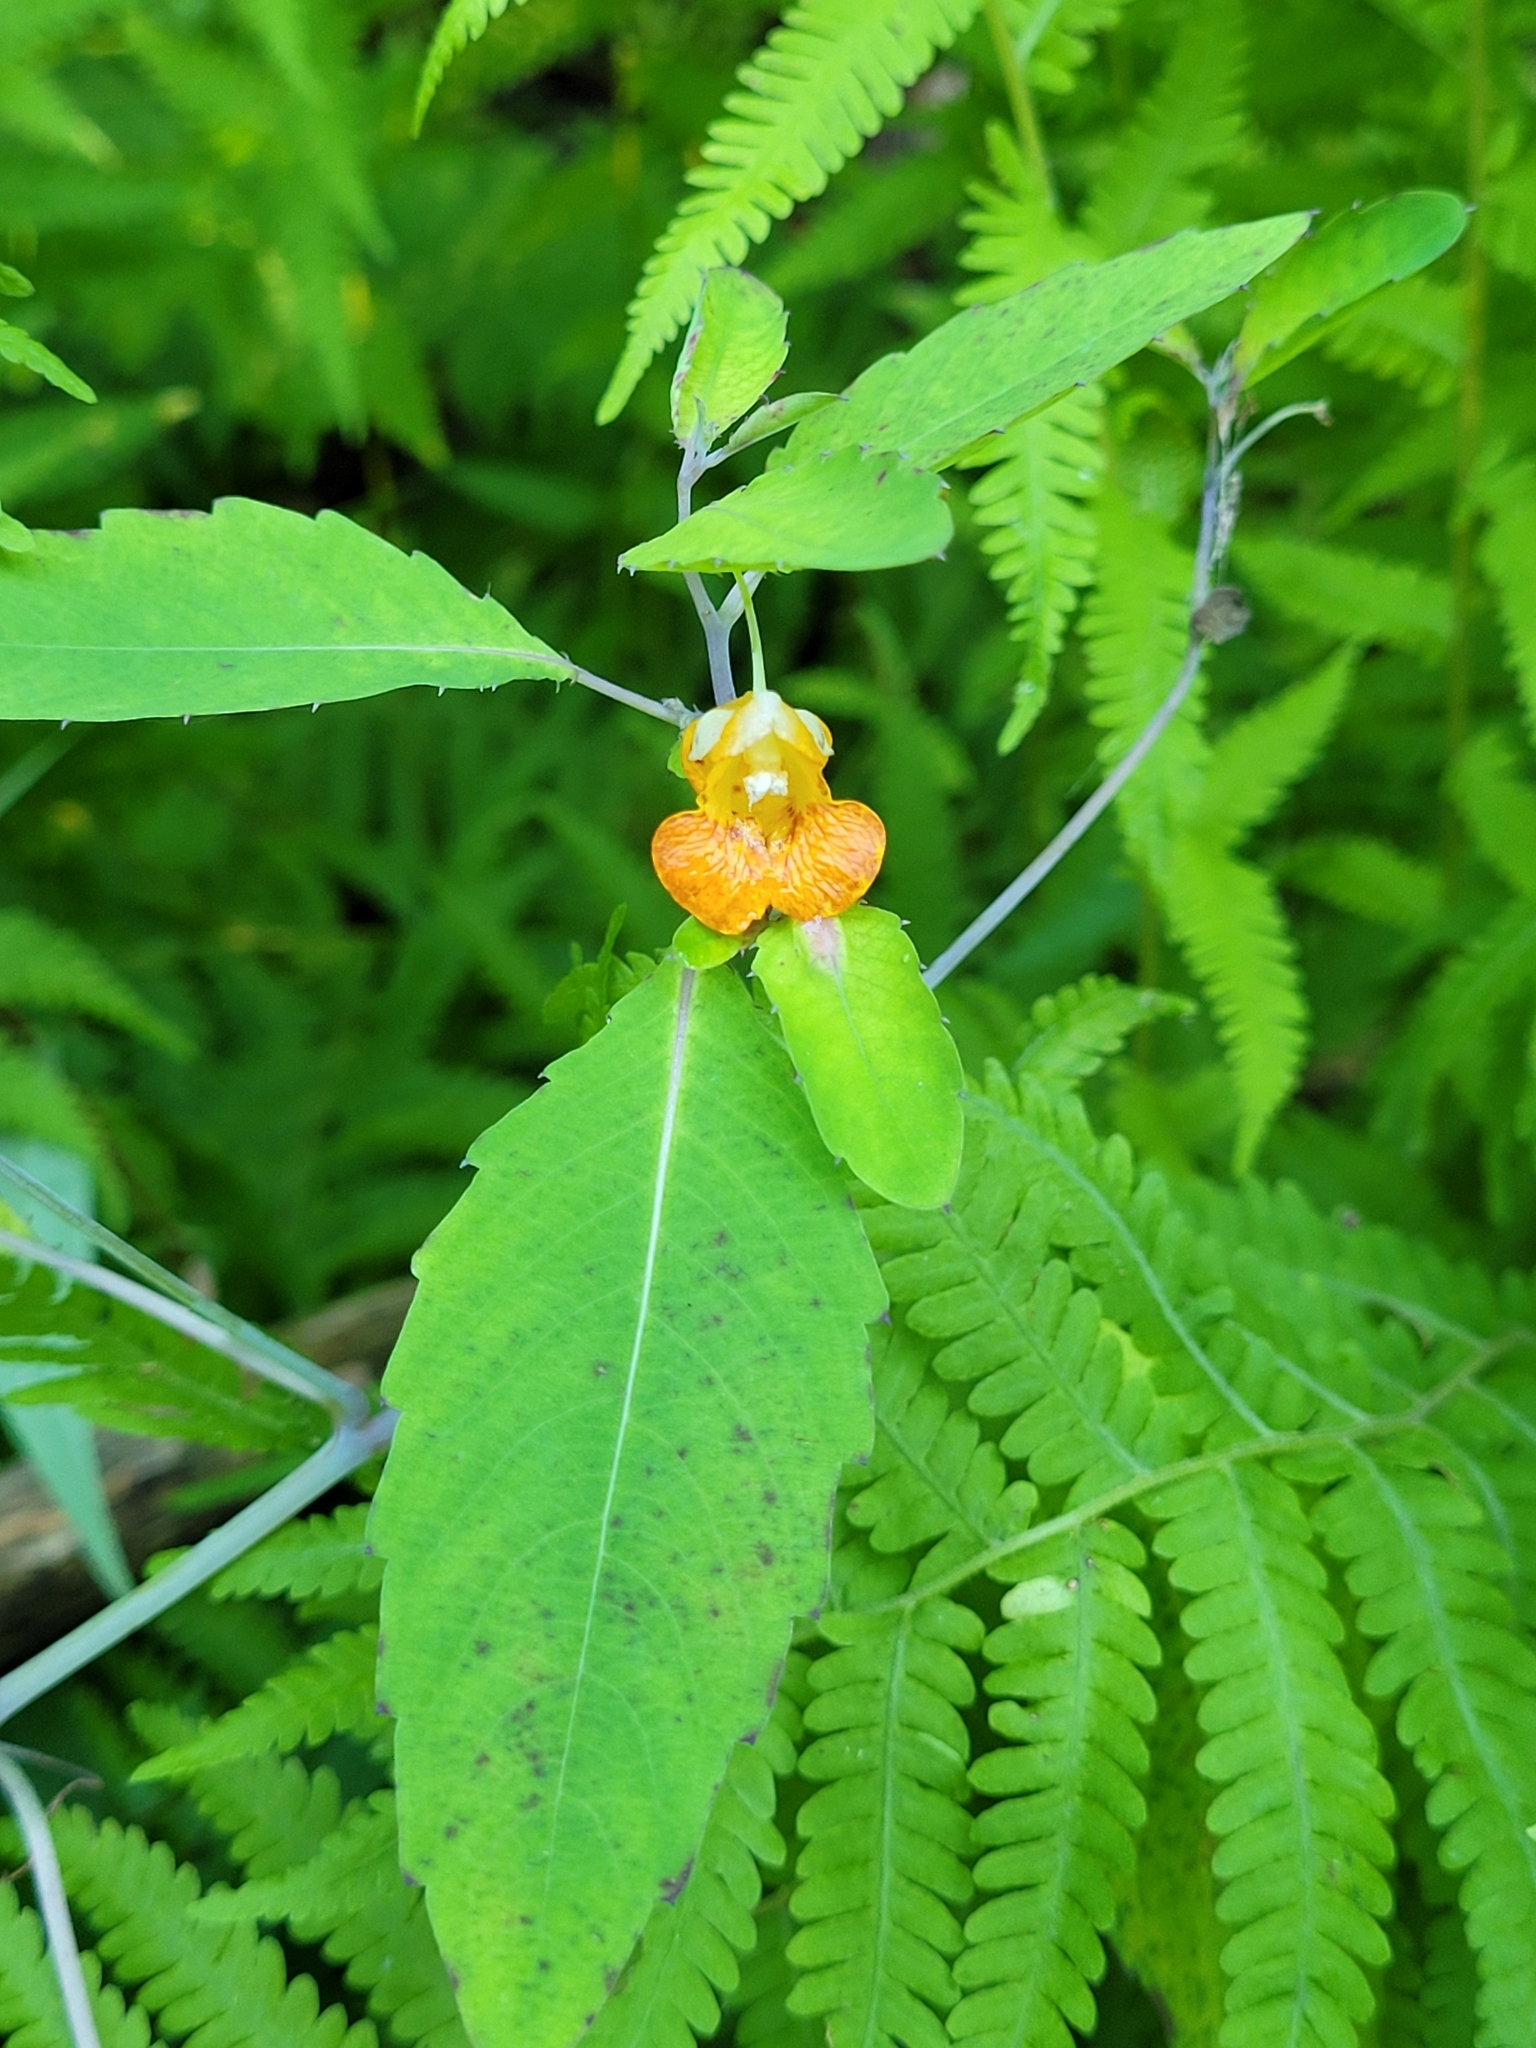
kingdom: Plantae
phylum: Tracheophyta
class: Magnoliopsida
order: Ericales
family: Balsaminaceae
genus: Impatiens
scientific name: Impatiens capensis
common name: Orange balsam
